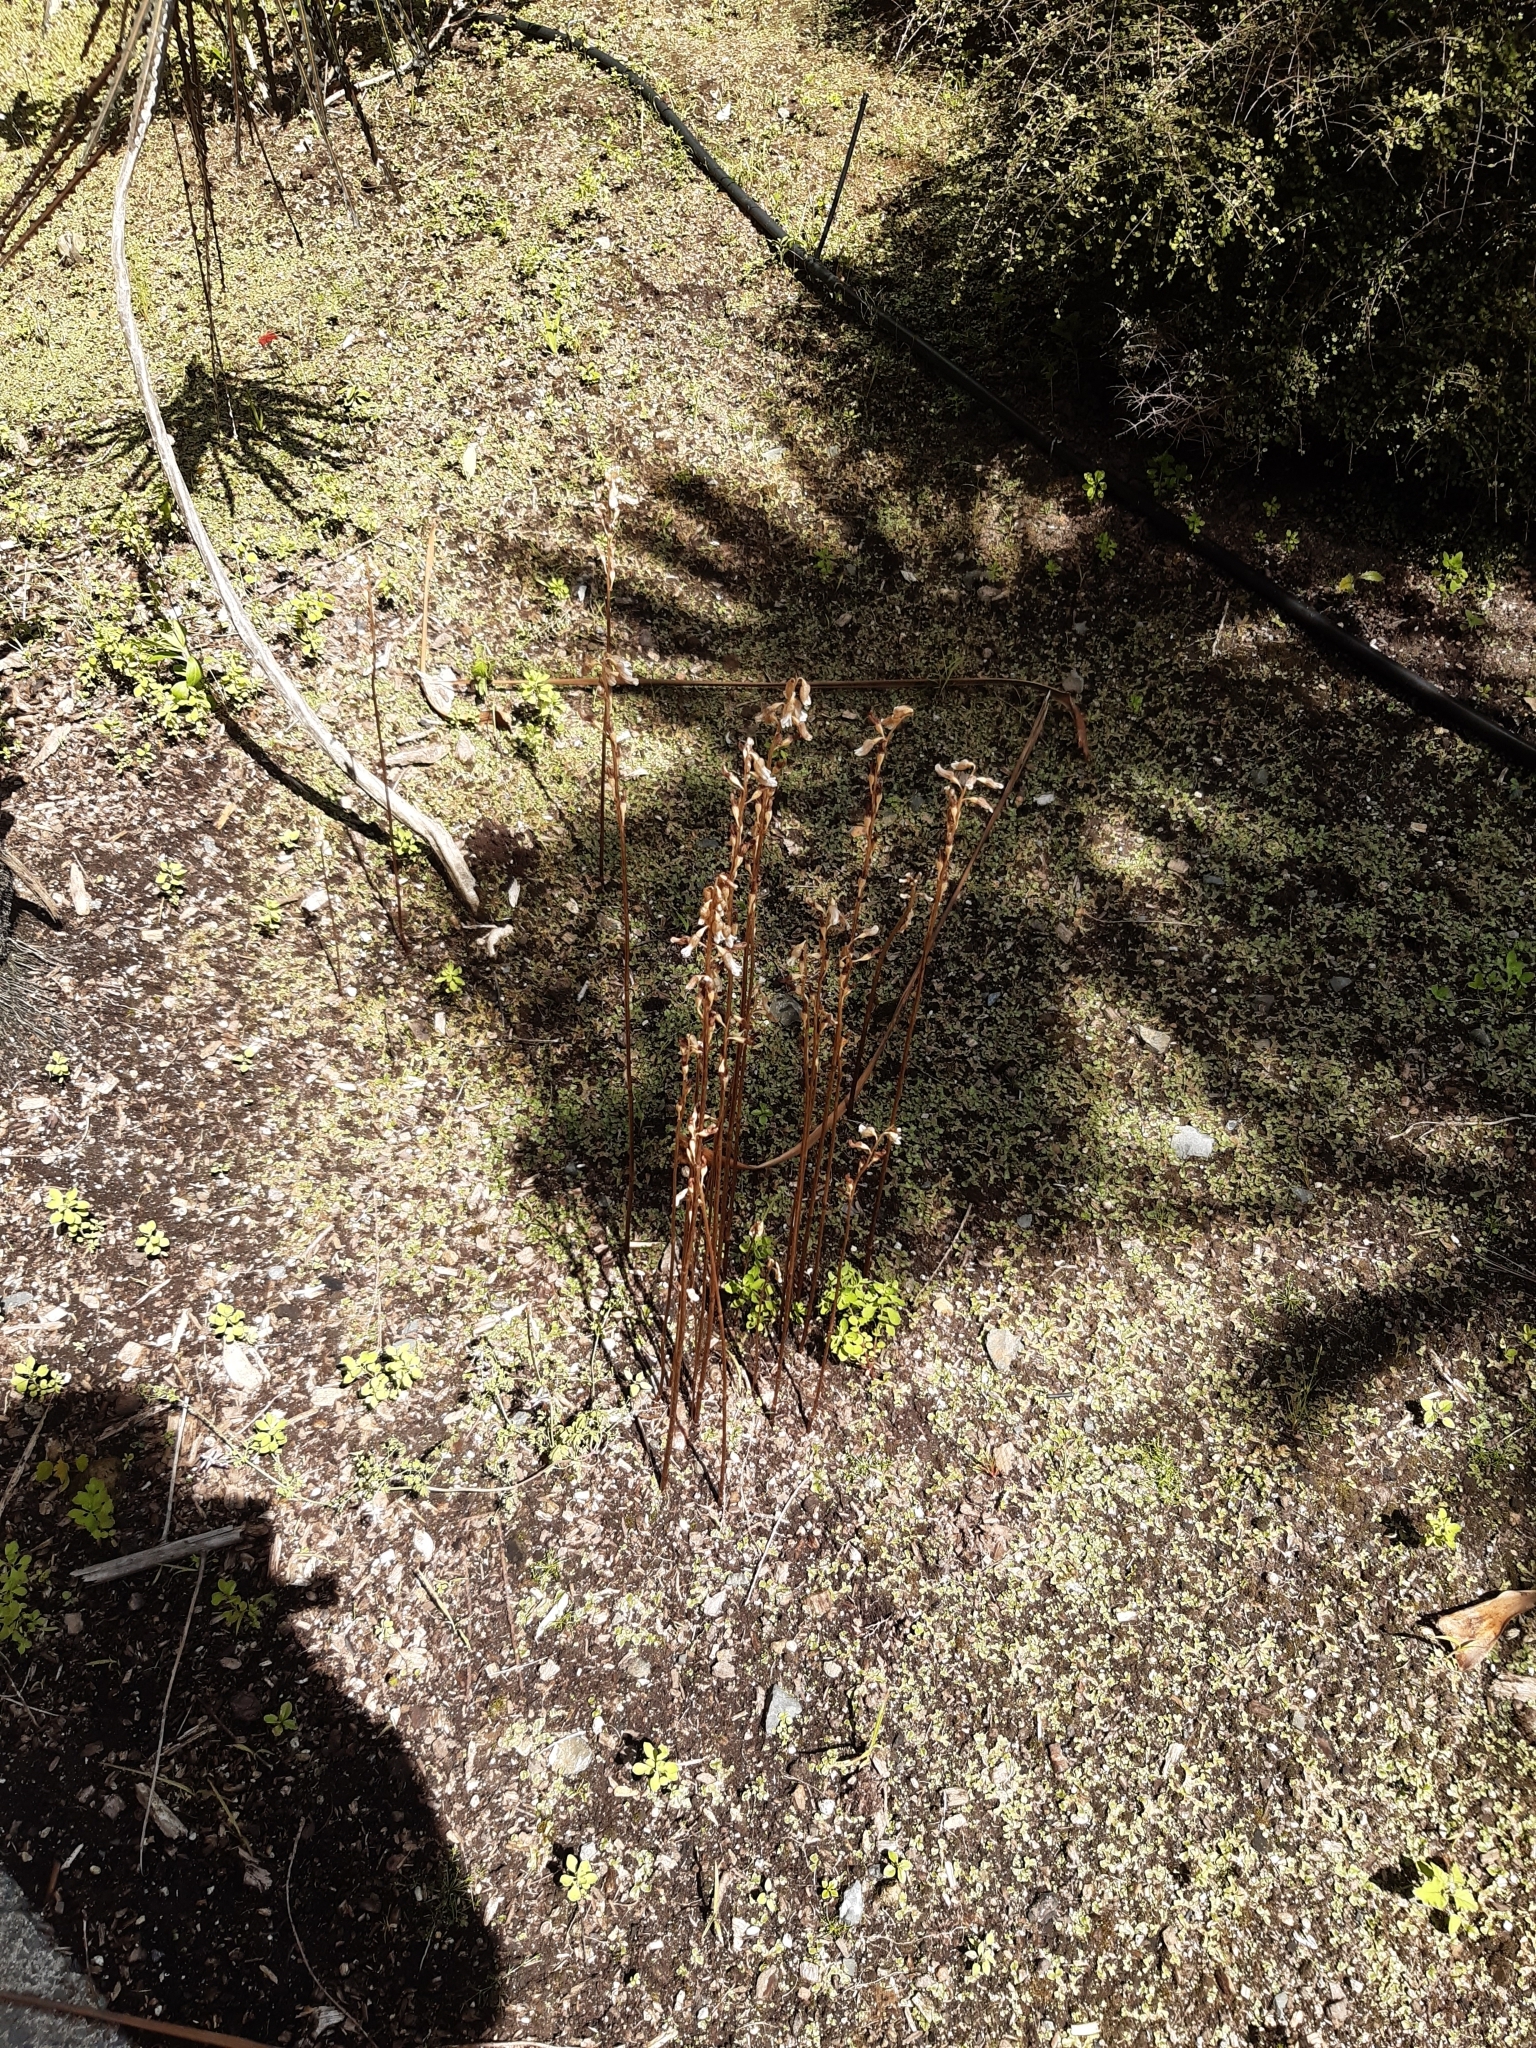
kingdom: Plantae
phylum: Tracheophyta
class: Liliopsida
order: Asparagales
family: Orchidaceae
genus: Gastrodia
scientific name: Gastrodia sesamoides
